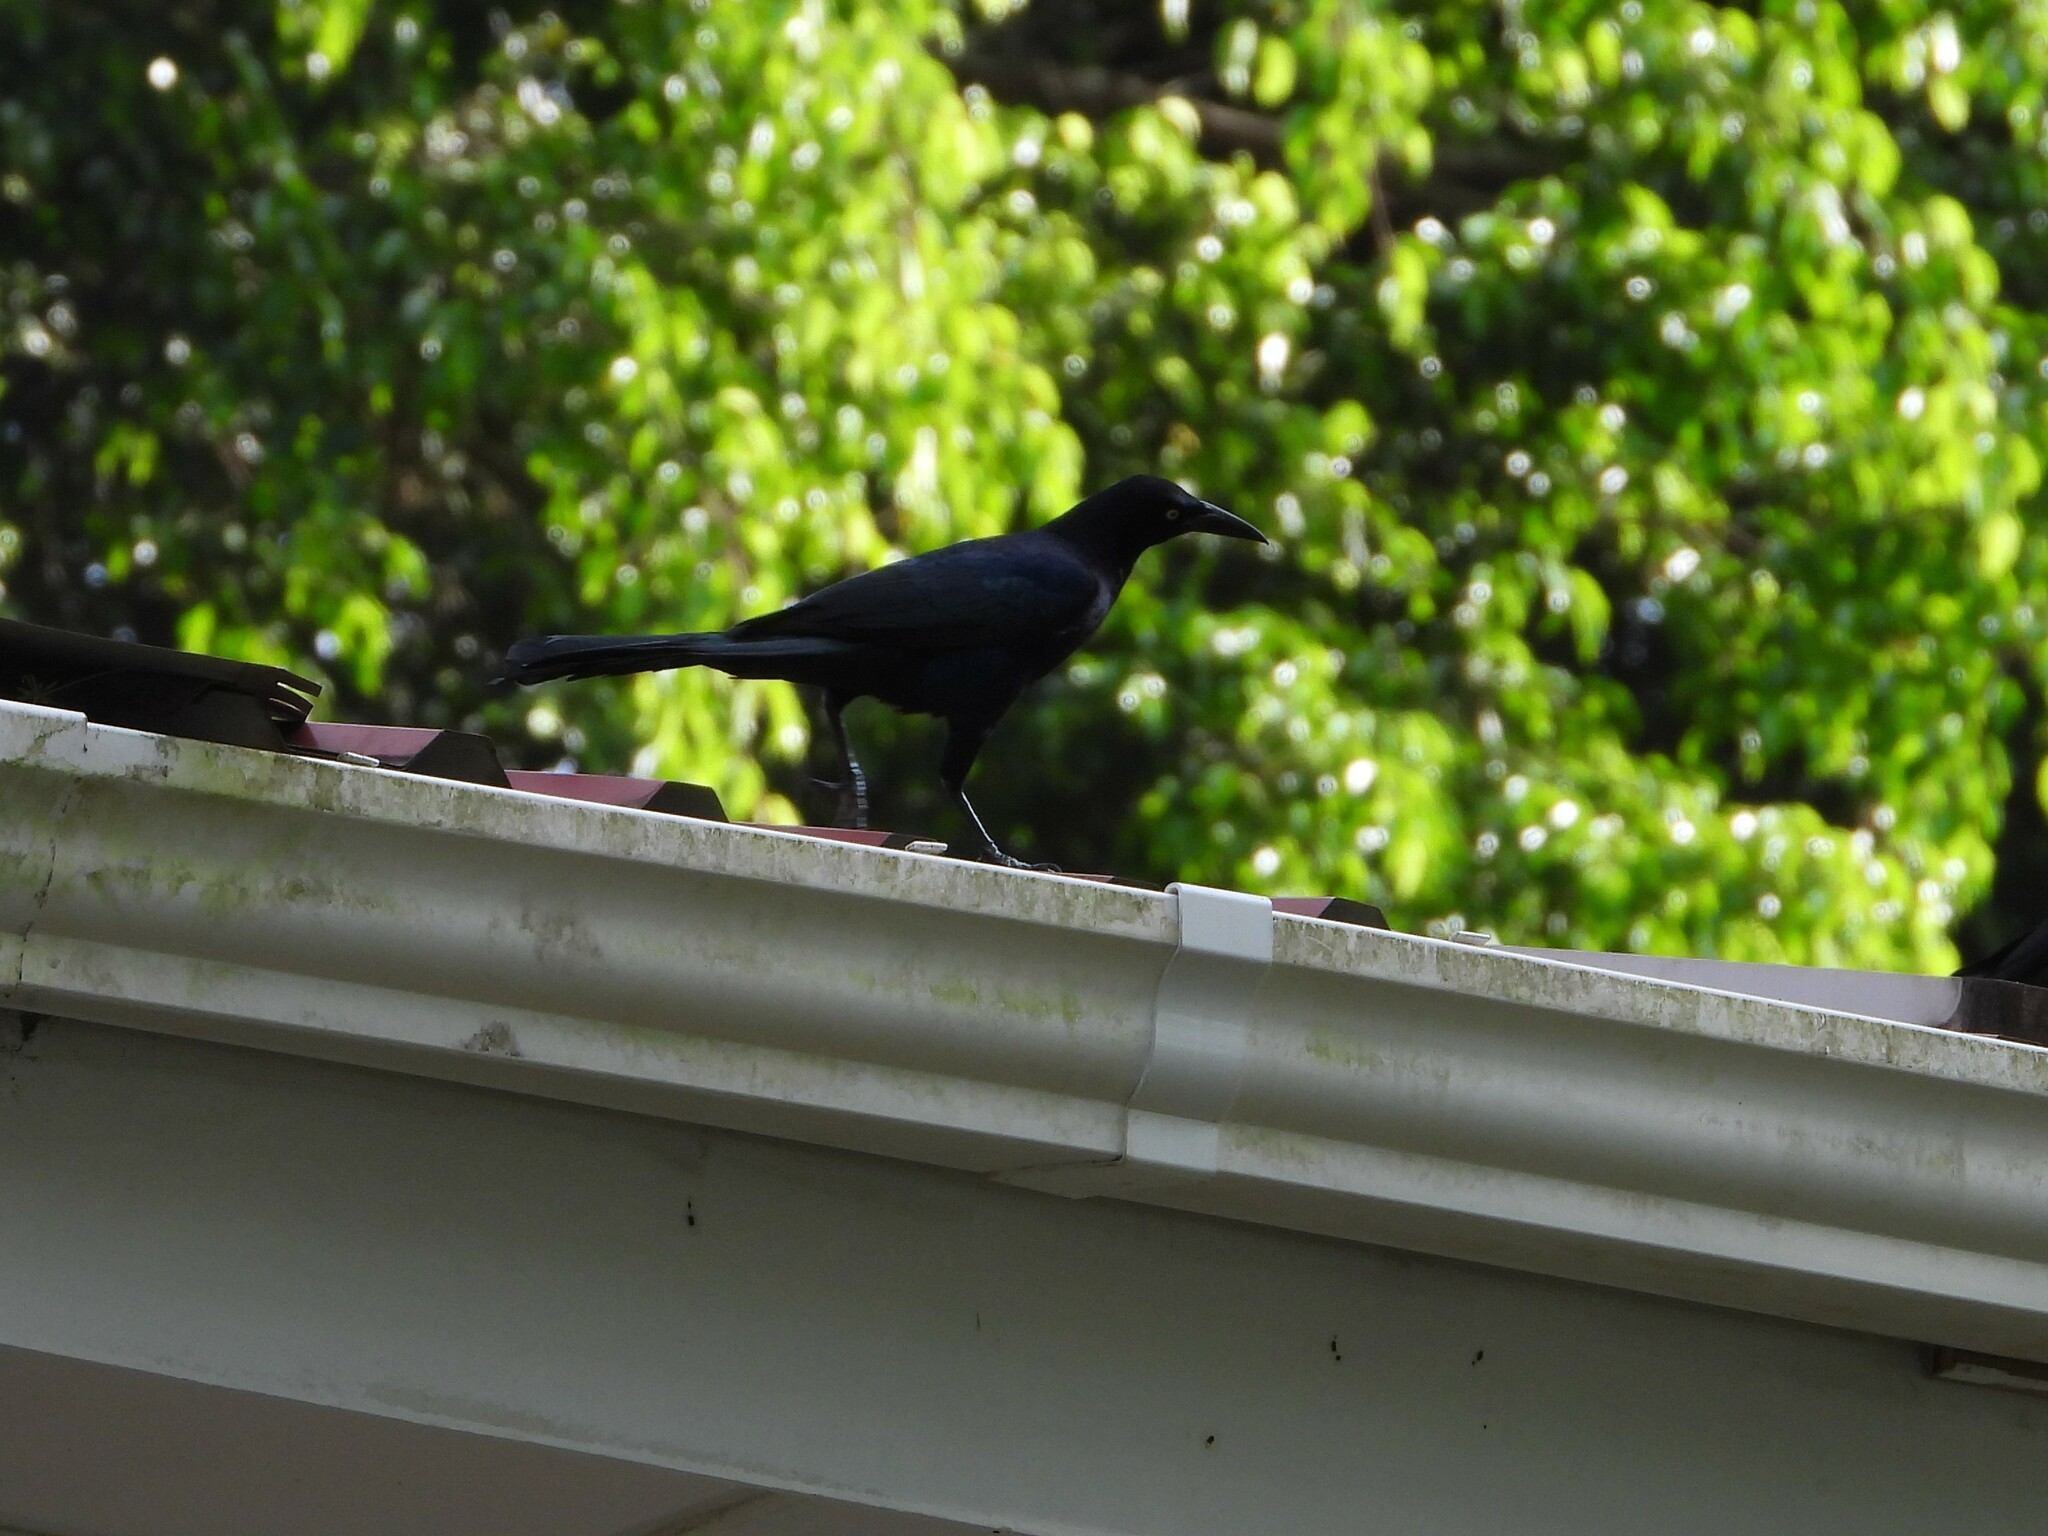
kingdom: Animalia
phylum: Chordata
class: Aves
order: Passeriformes
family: Icteridae
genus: Quiscalus
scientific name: Quiscalus mexicanus
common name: Great-tailed grackle
